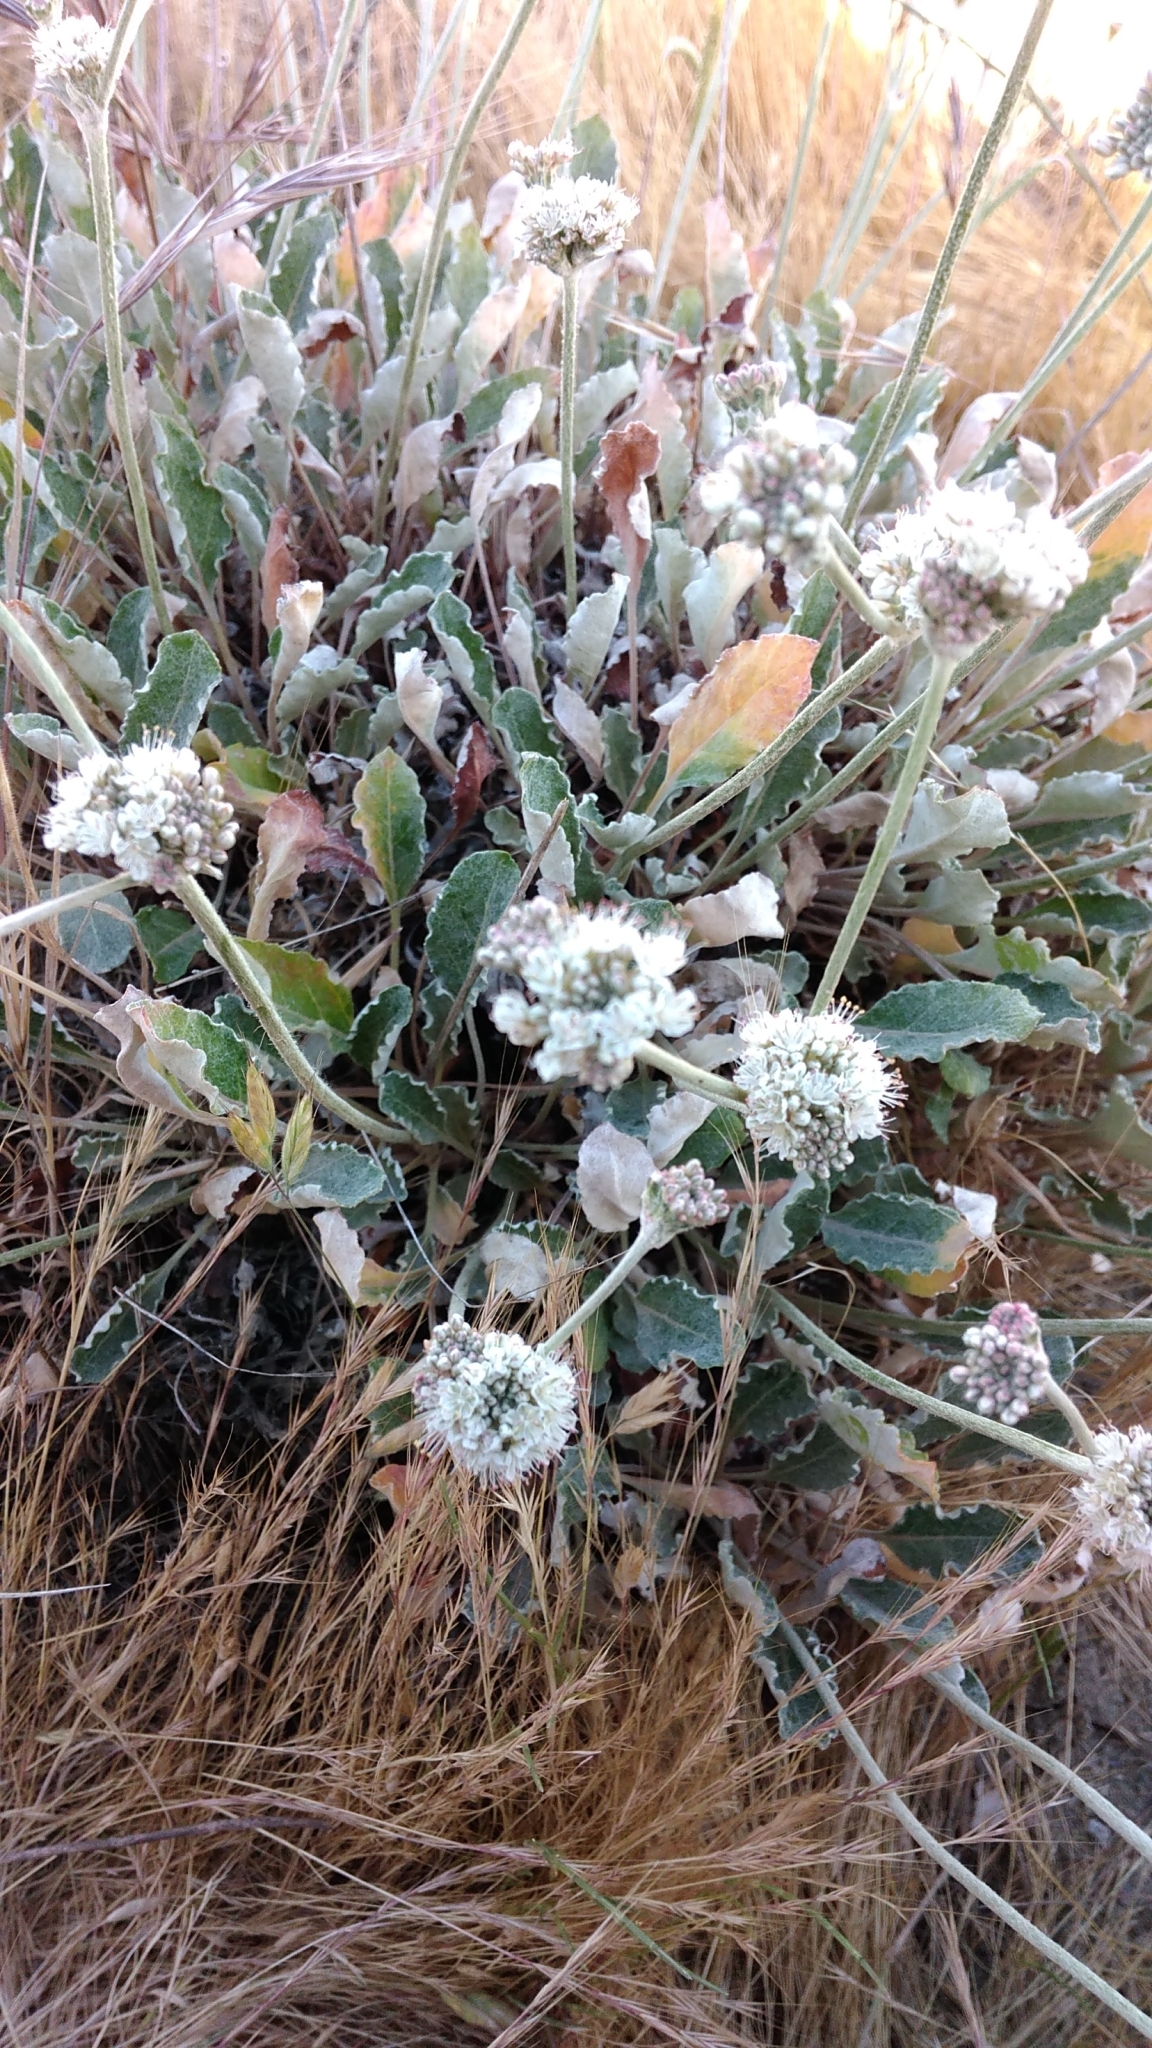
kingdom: Plantae
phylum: Tracheophyta
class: Magnoliopsida
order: Caryophyllales
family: Polygonaceae
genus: Eriogonum
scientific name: Eriogonum latifolium
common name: Seaside wild buckwheat
